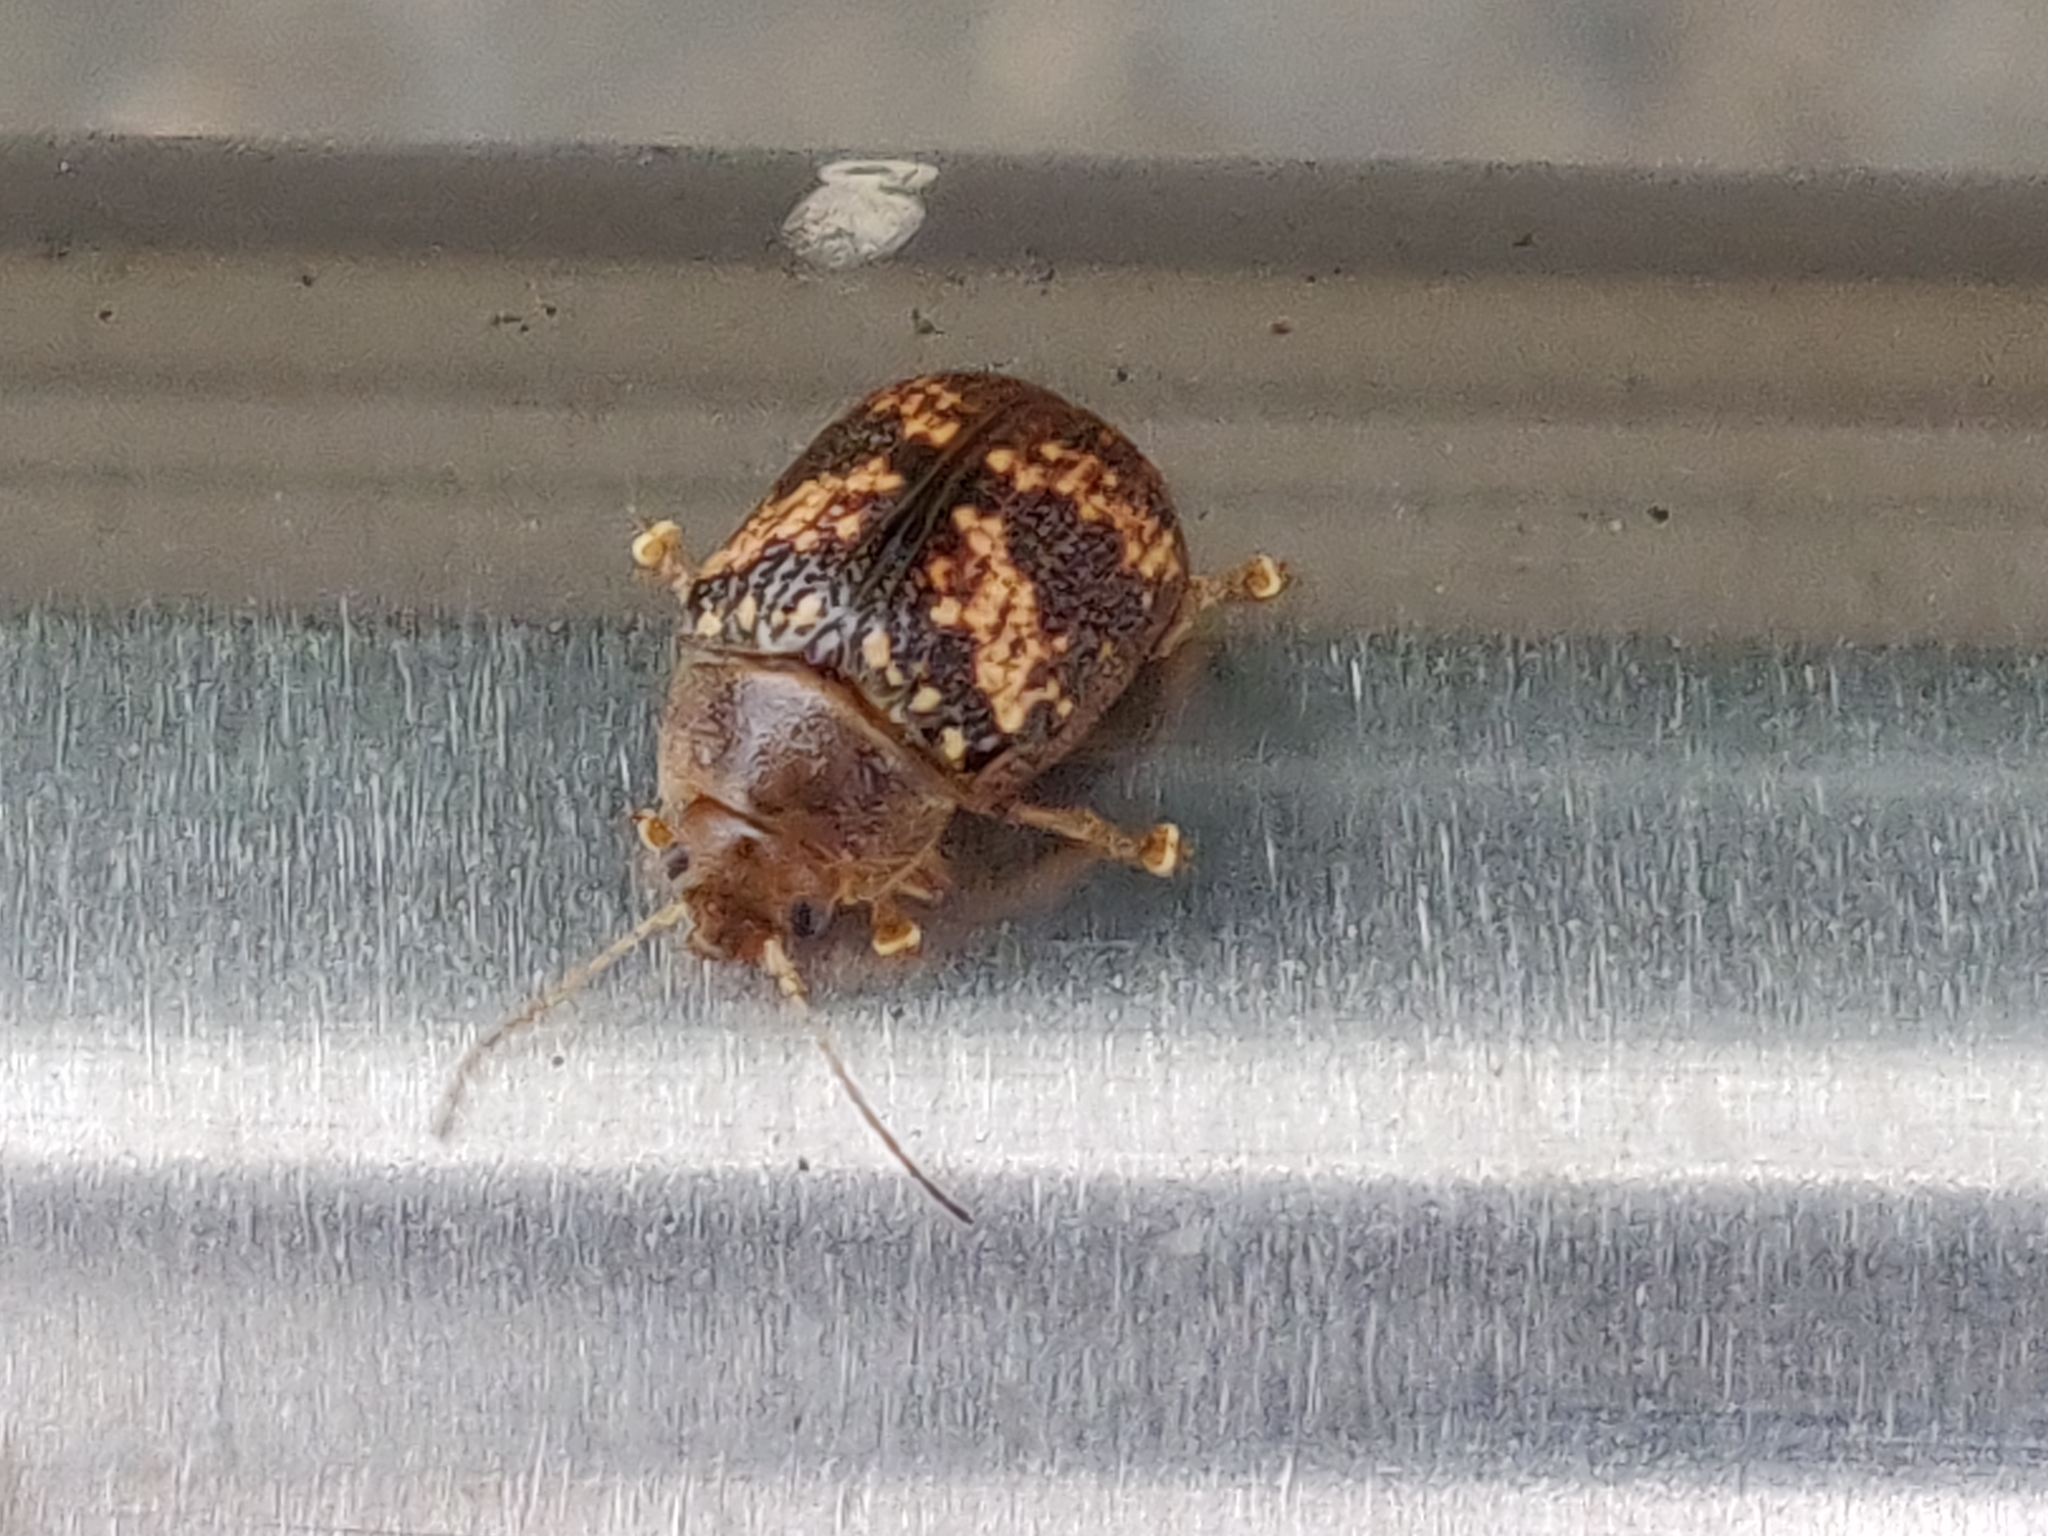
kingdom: Animalia
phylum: Arthropoda
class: Insecta
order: Coleoptera
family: Chrysomelidae
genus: Paropsis
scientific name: Paropsis
